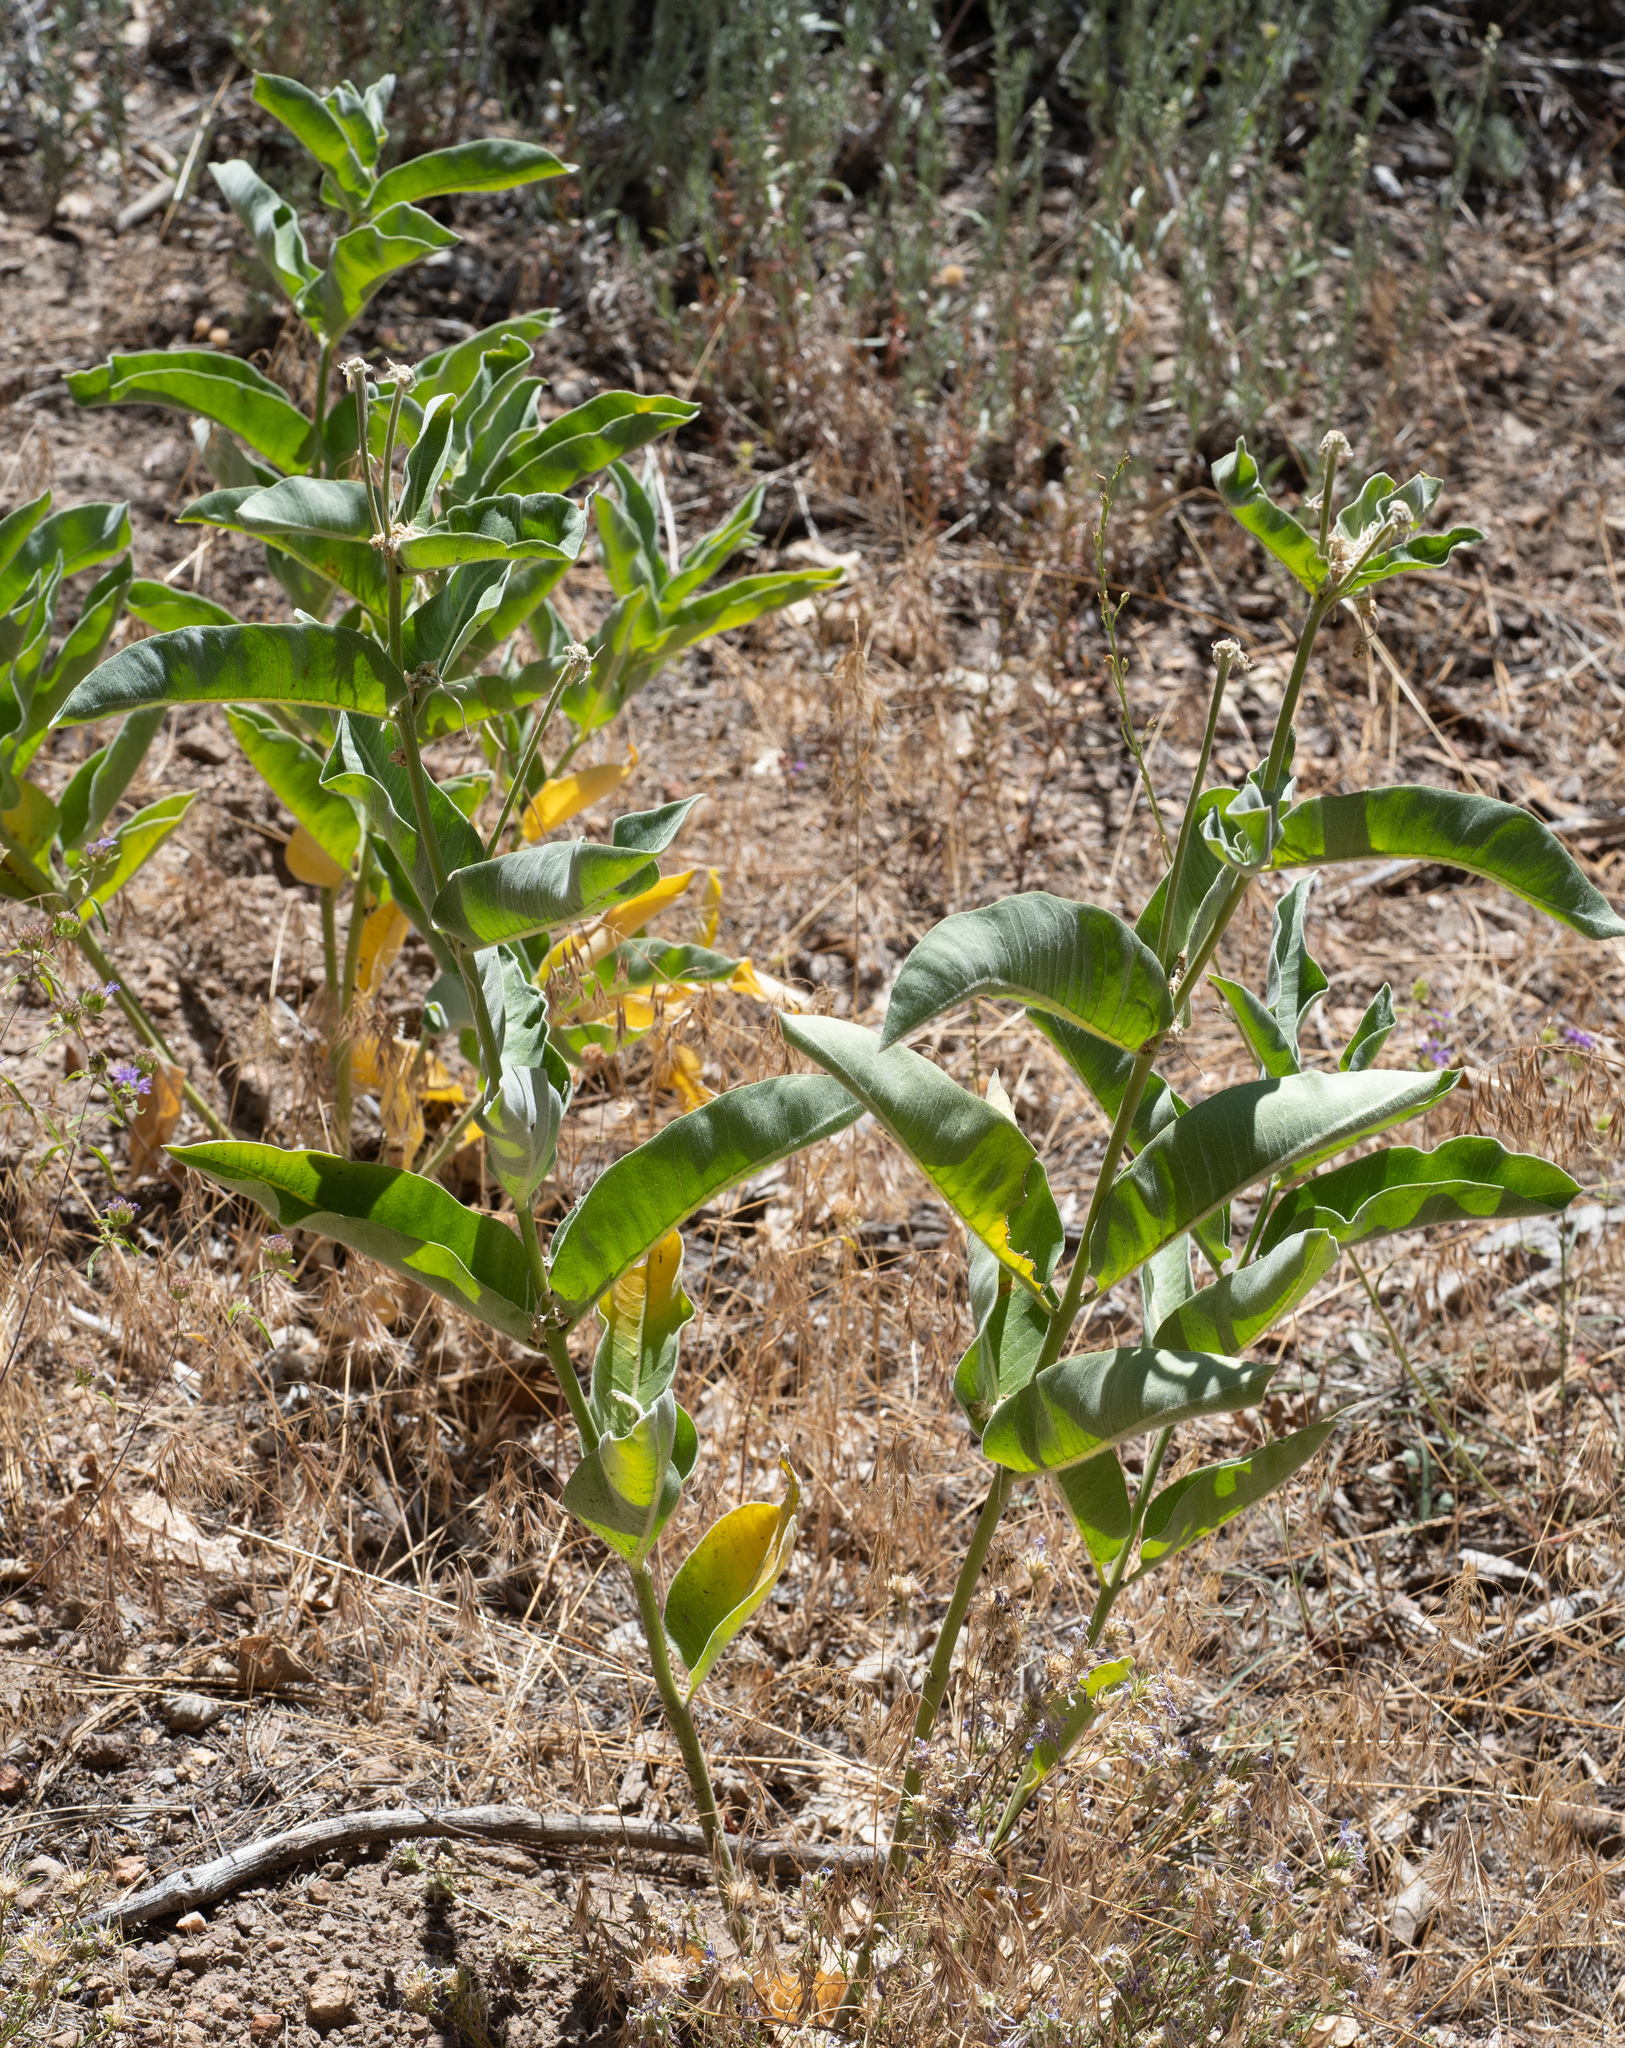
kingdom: Plantae
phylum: Tracheophyta
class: Magnoliopsida
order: Gentianales
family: Apocynaceae
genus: Asclepias
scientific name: Asclepias eriocarpa
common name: Indian milkweed
